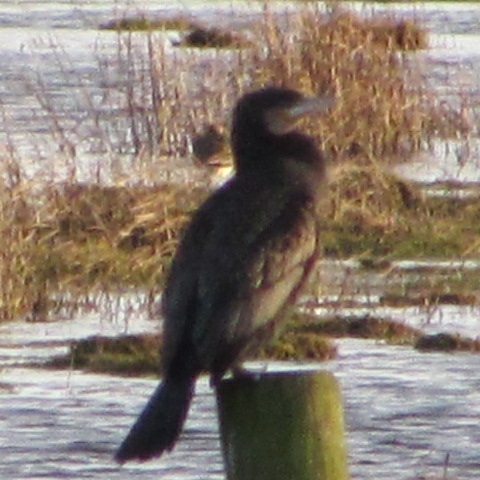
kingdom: Animalia
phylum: Chordata
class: Aves
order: Suliformes
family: Phalacrocoracidae
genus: Phalacrocorax
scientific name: Phalacrocorax carbo
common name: Great cormorant
